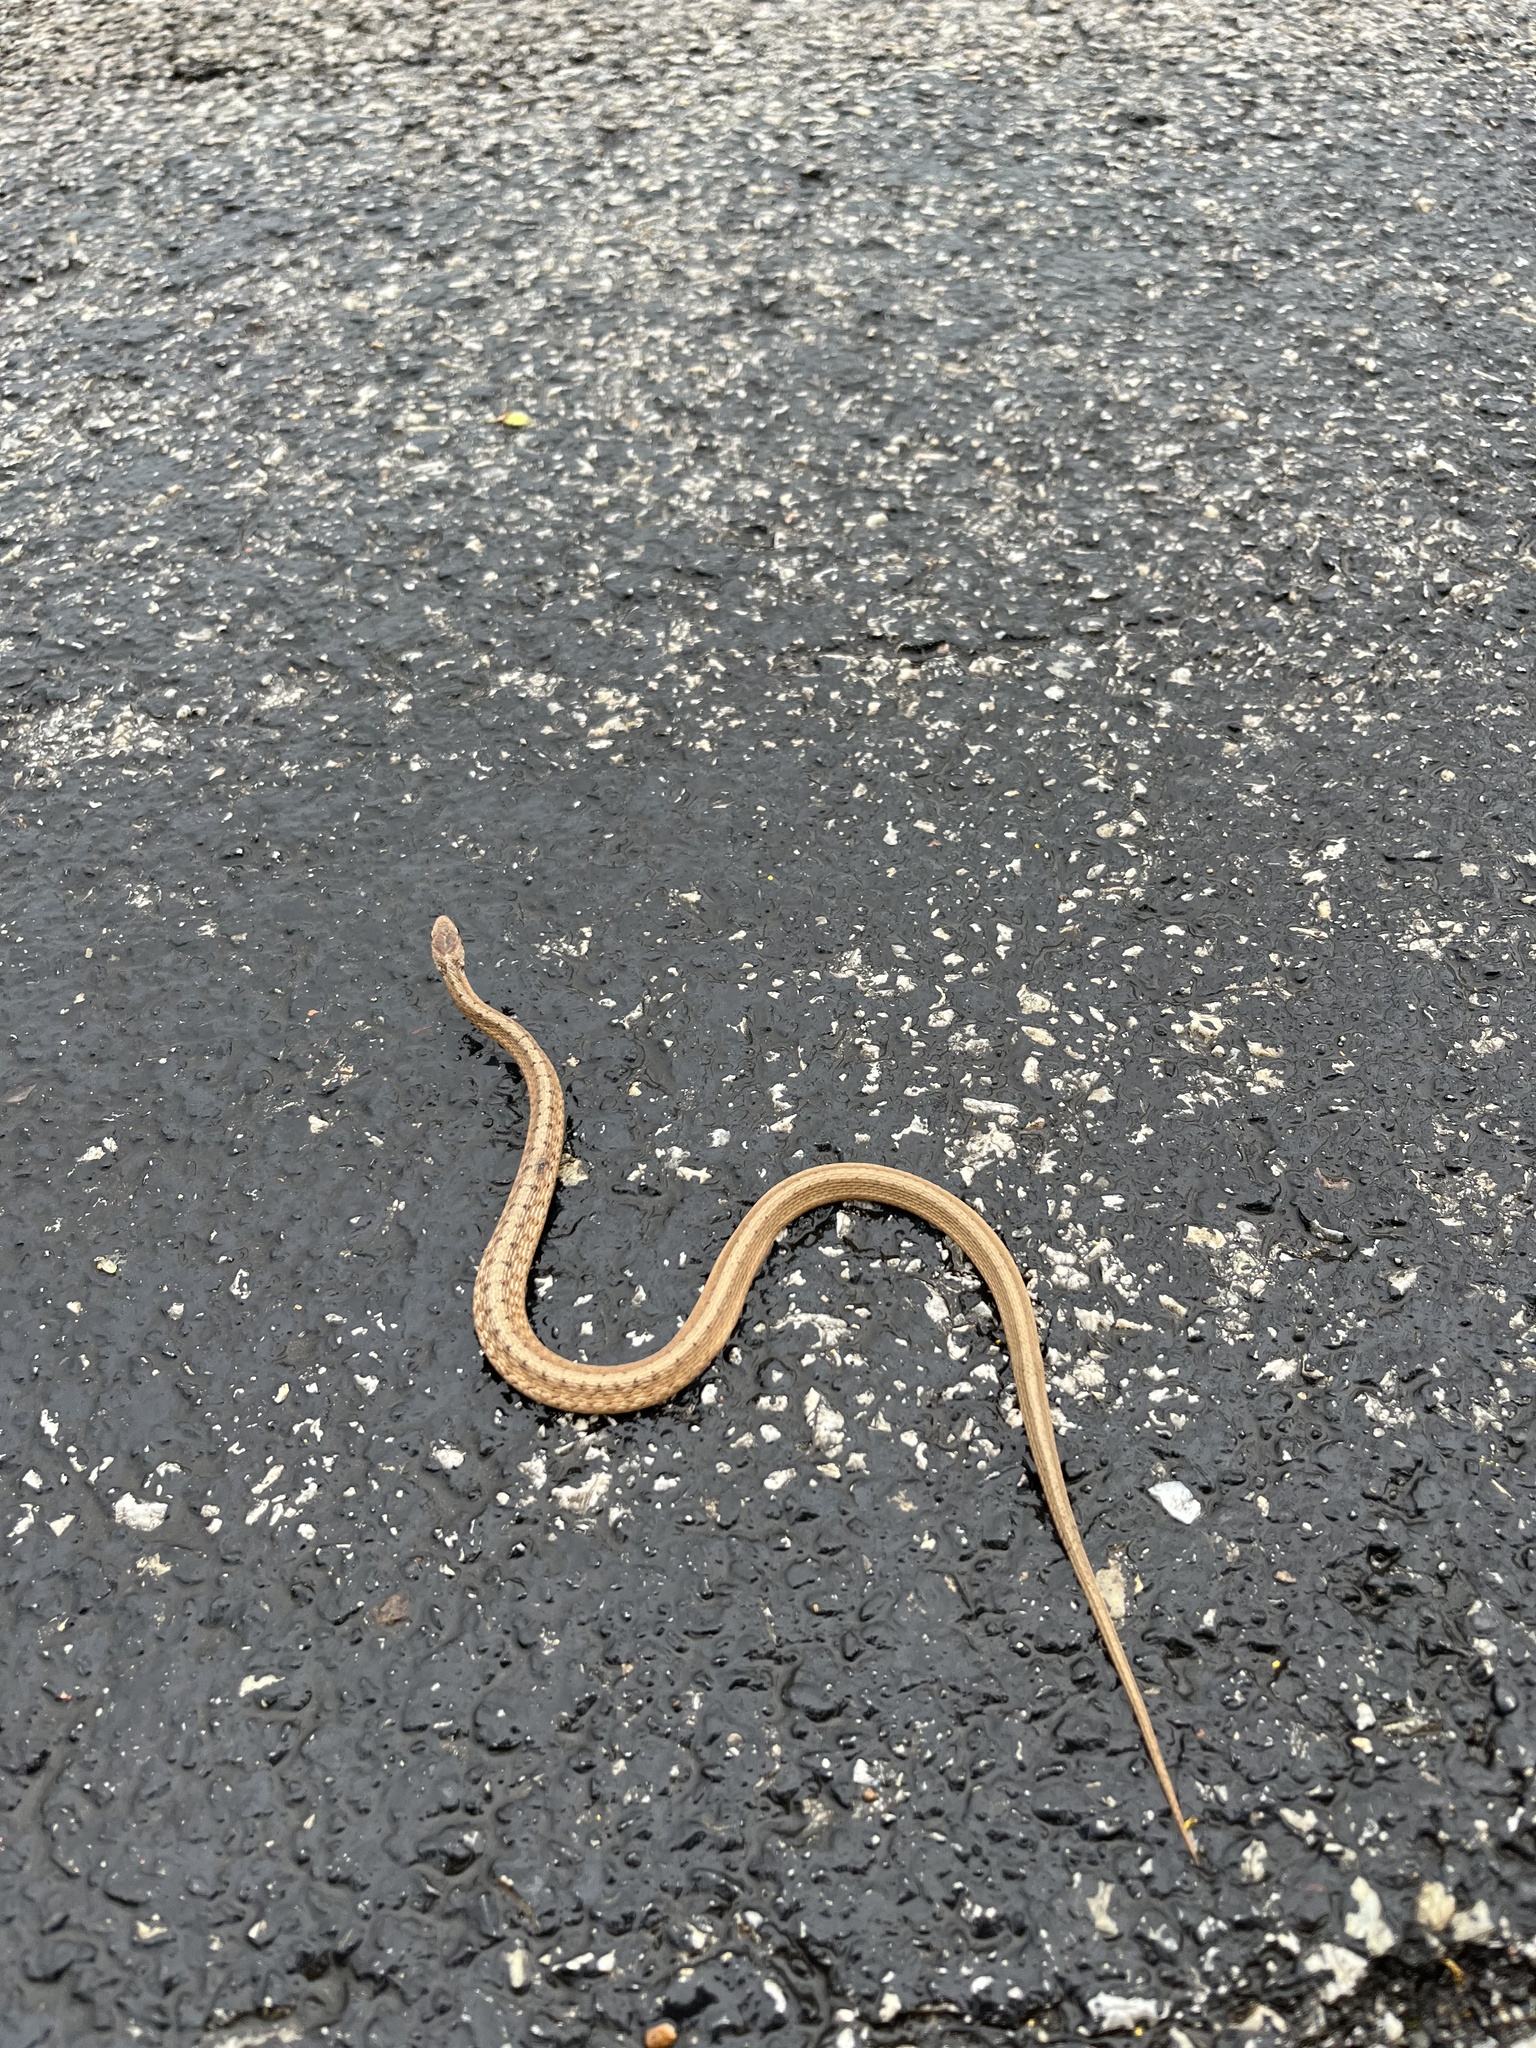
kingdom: Animalia
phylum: Chordata
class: Squamata
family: Colubridae
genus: Storeria
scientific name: Storeria dekayi
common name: (dekay’s) brown snake
